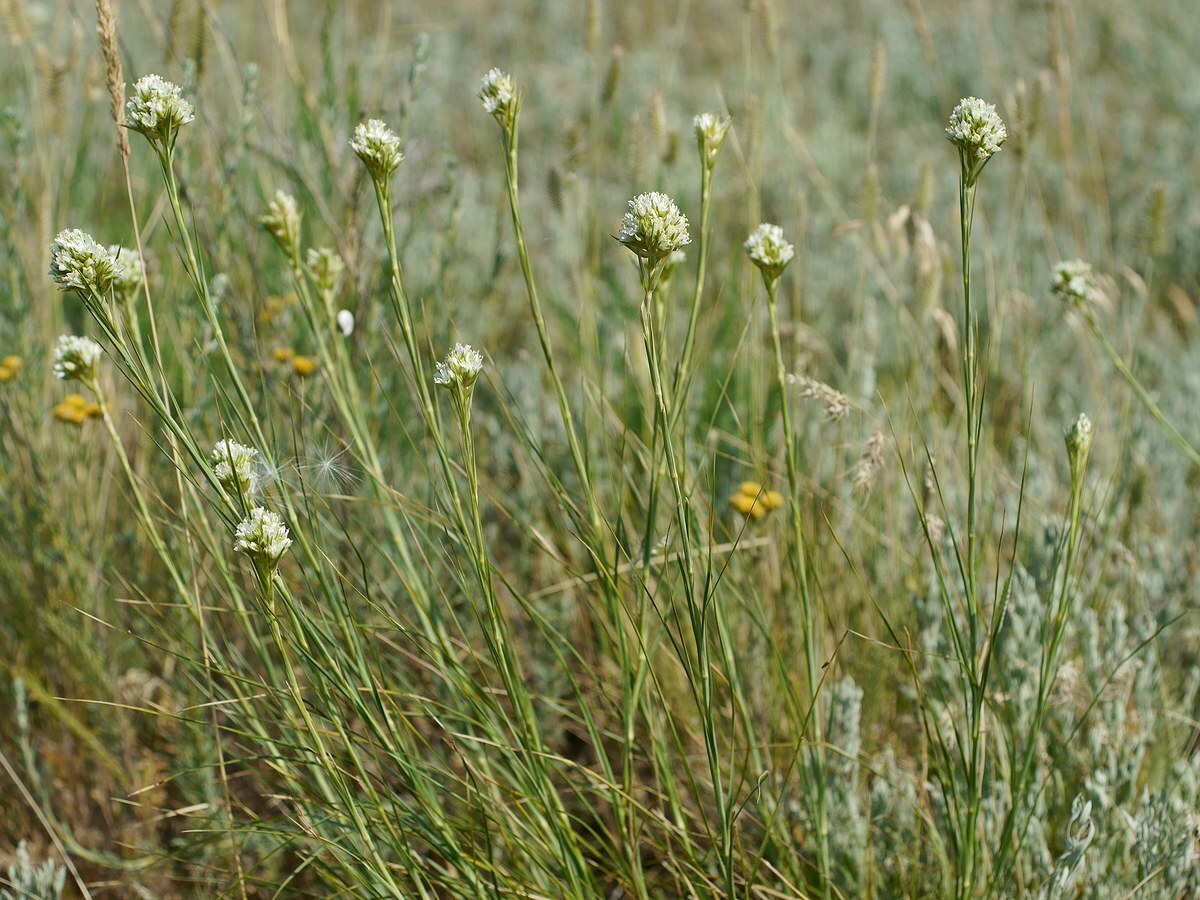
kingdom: Plantae
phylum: Tracheophyta
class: Magnoliopsida
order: Caryophyllales
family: Caryophyllaceae
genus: Eremogone
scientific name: Eremogone cephalotes
